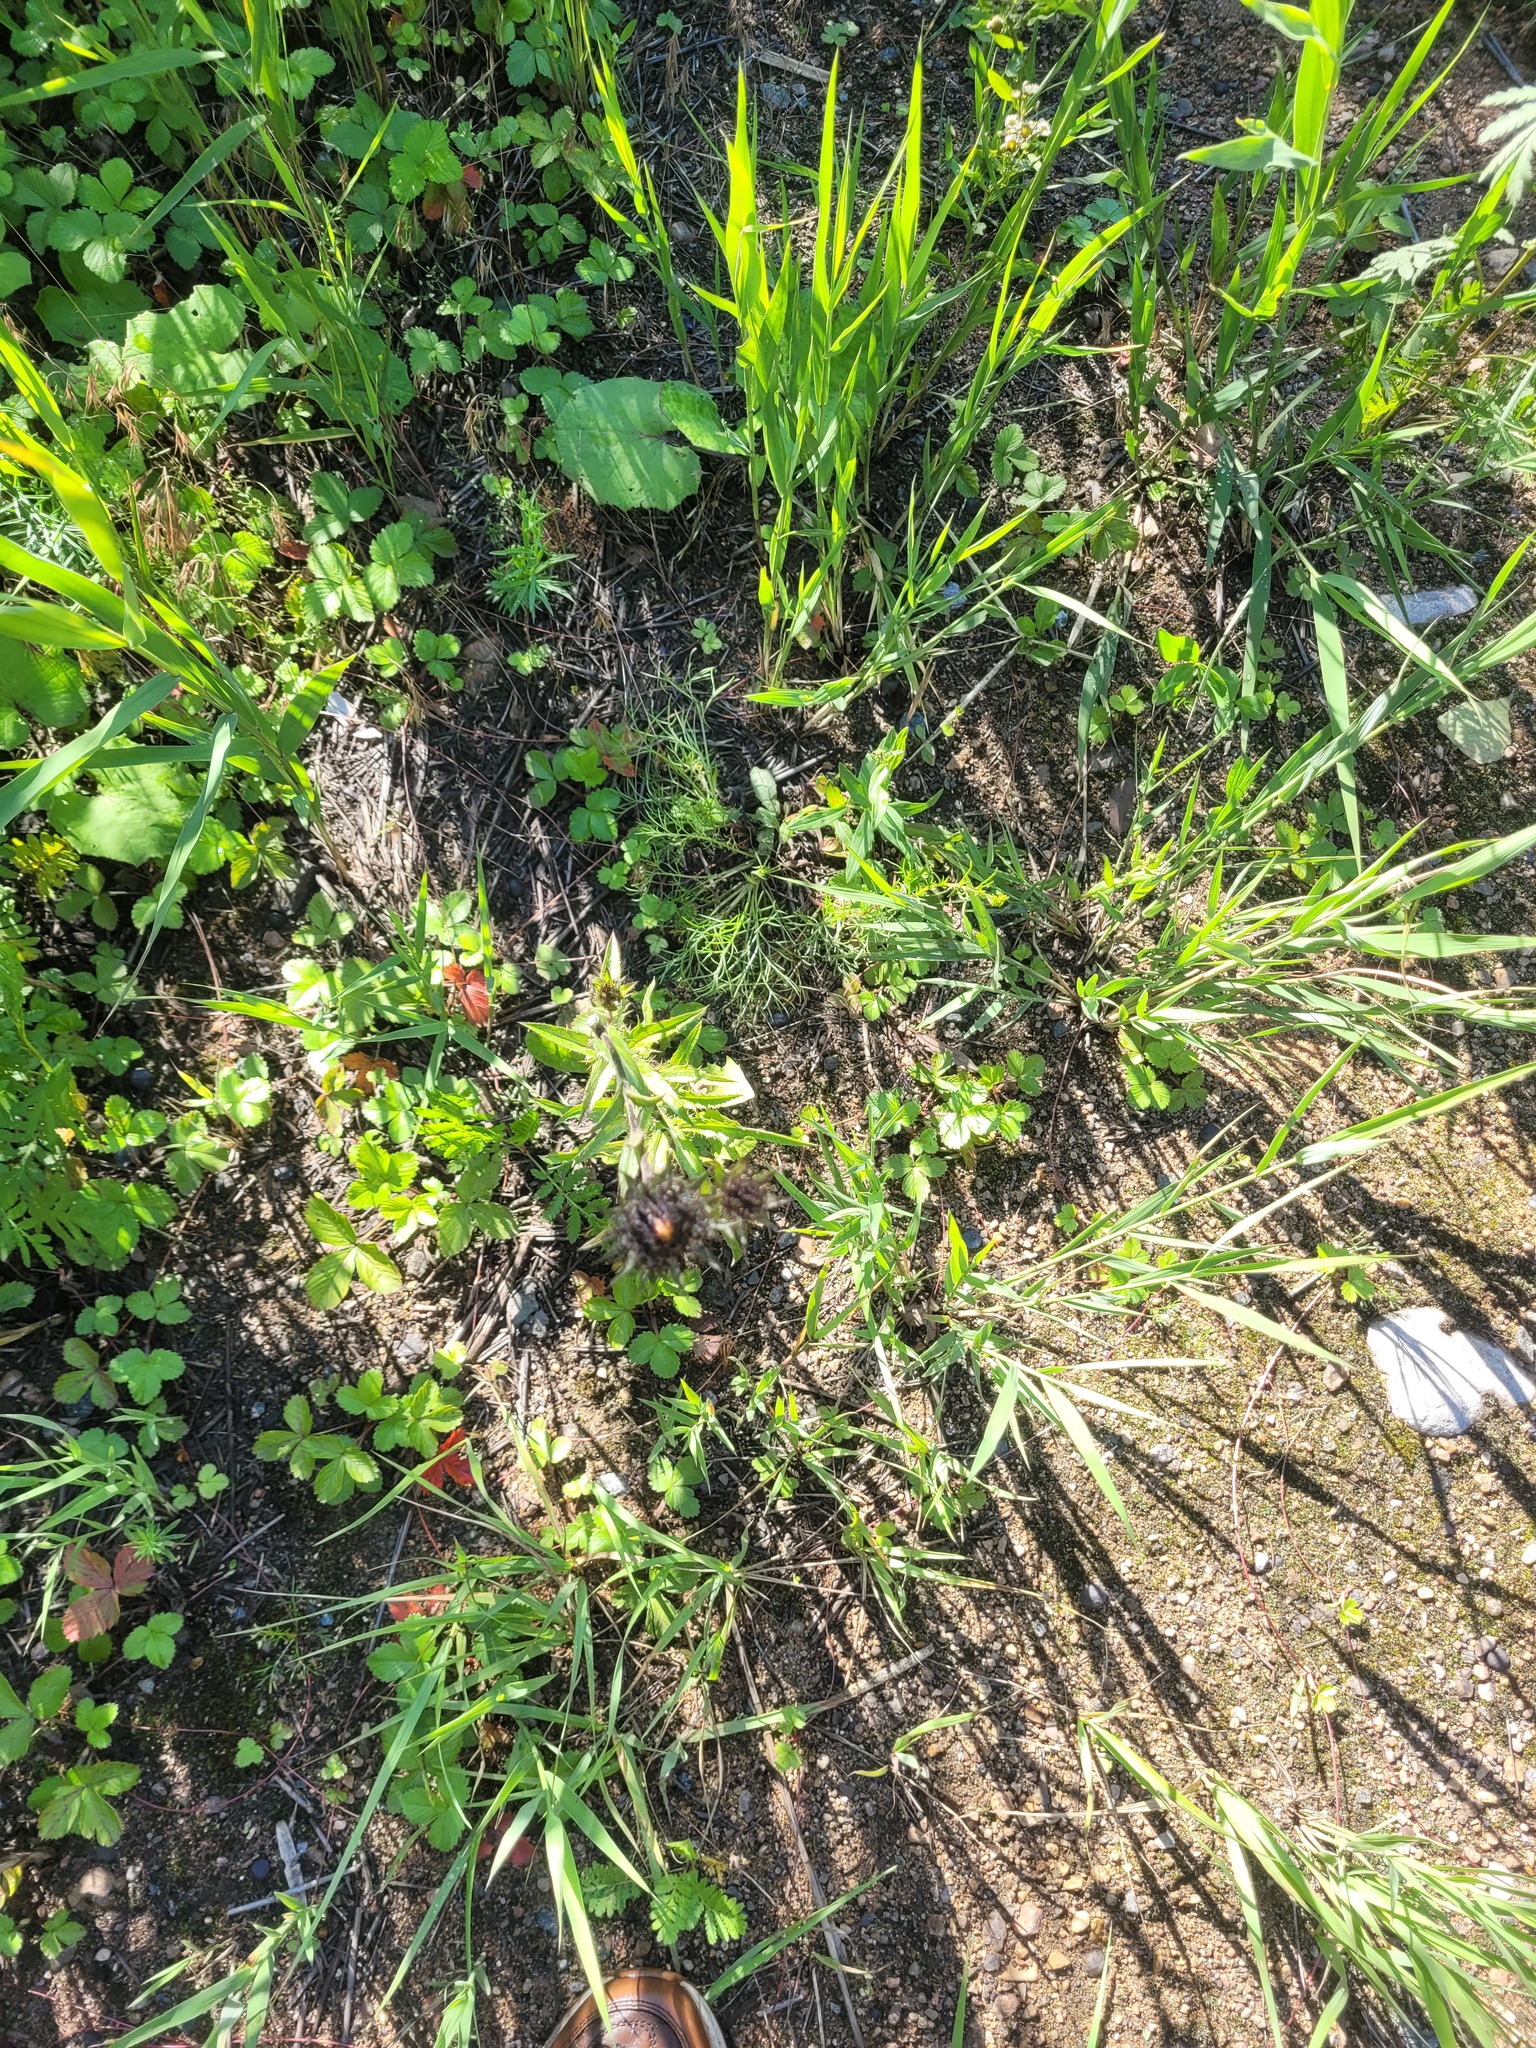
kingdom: Plantae
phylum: Tracheophyta
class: Magnoliopsida
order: Asterales
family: Asteraceae
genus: Carlina
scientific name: Carlina biebersteinii
